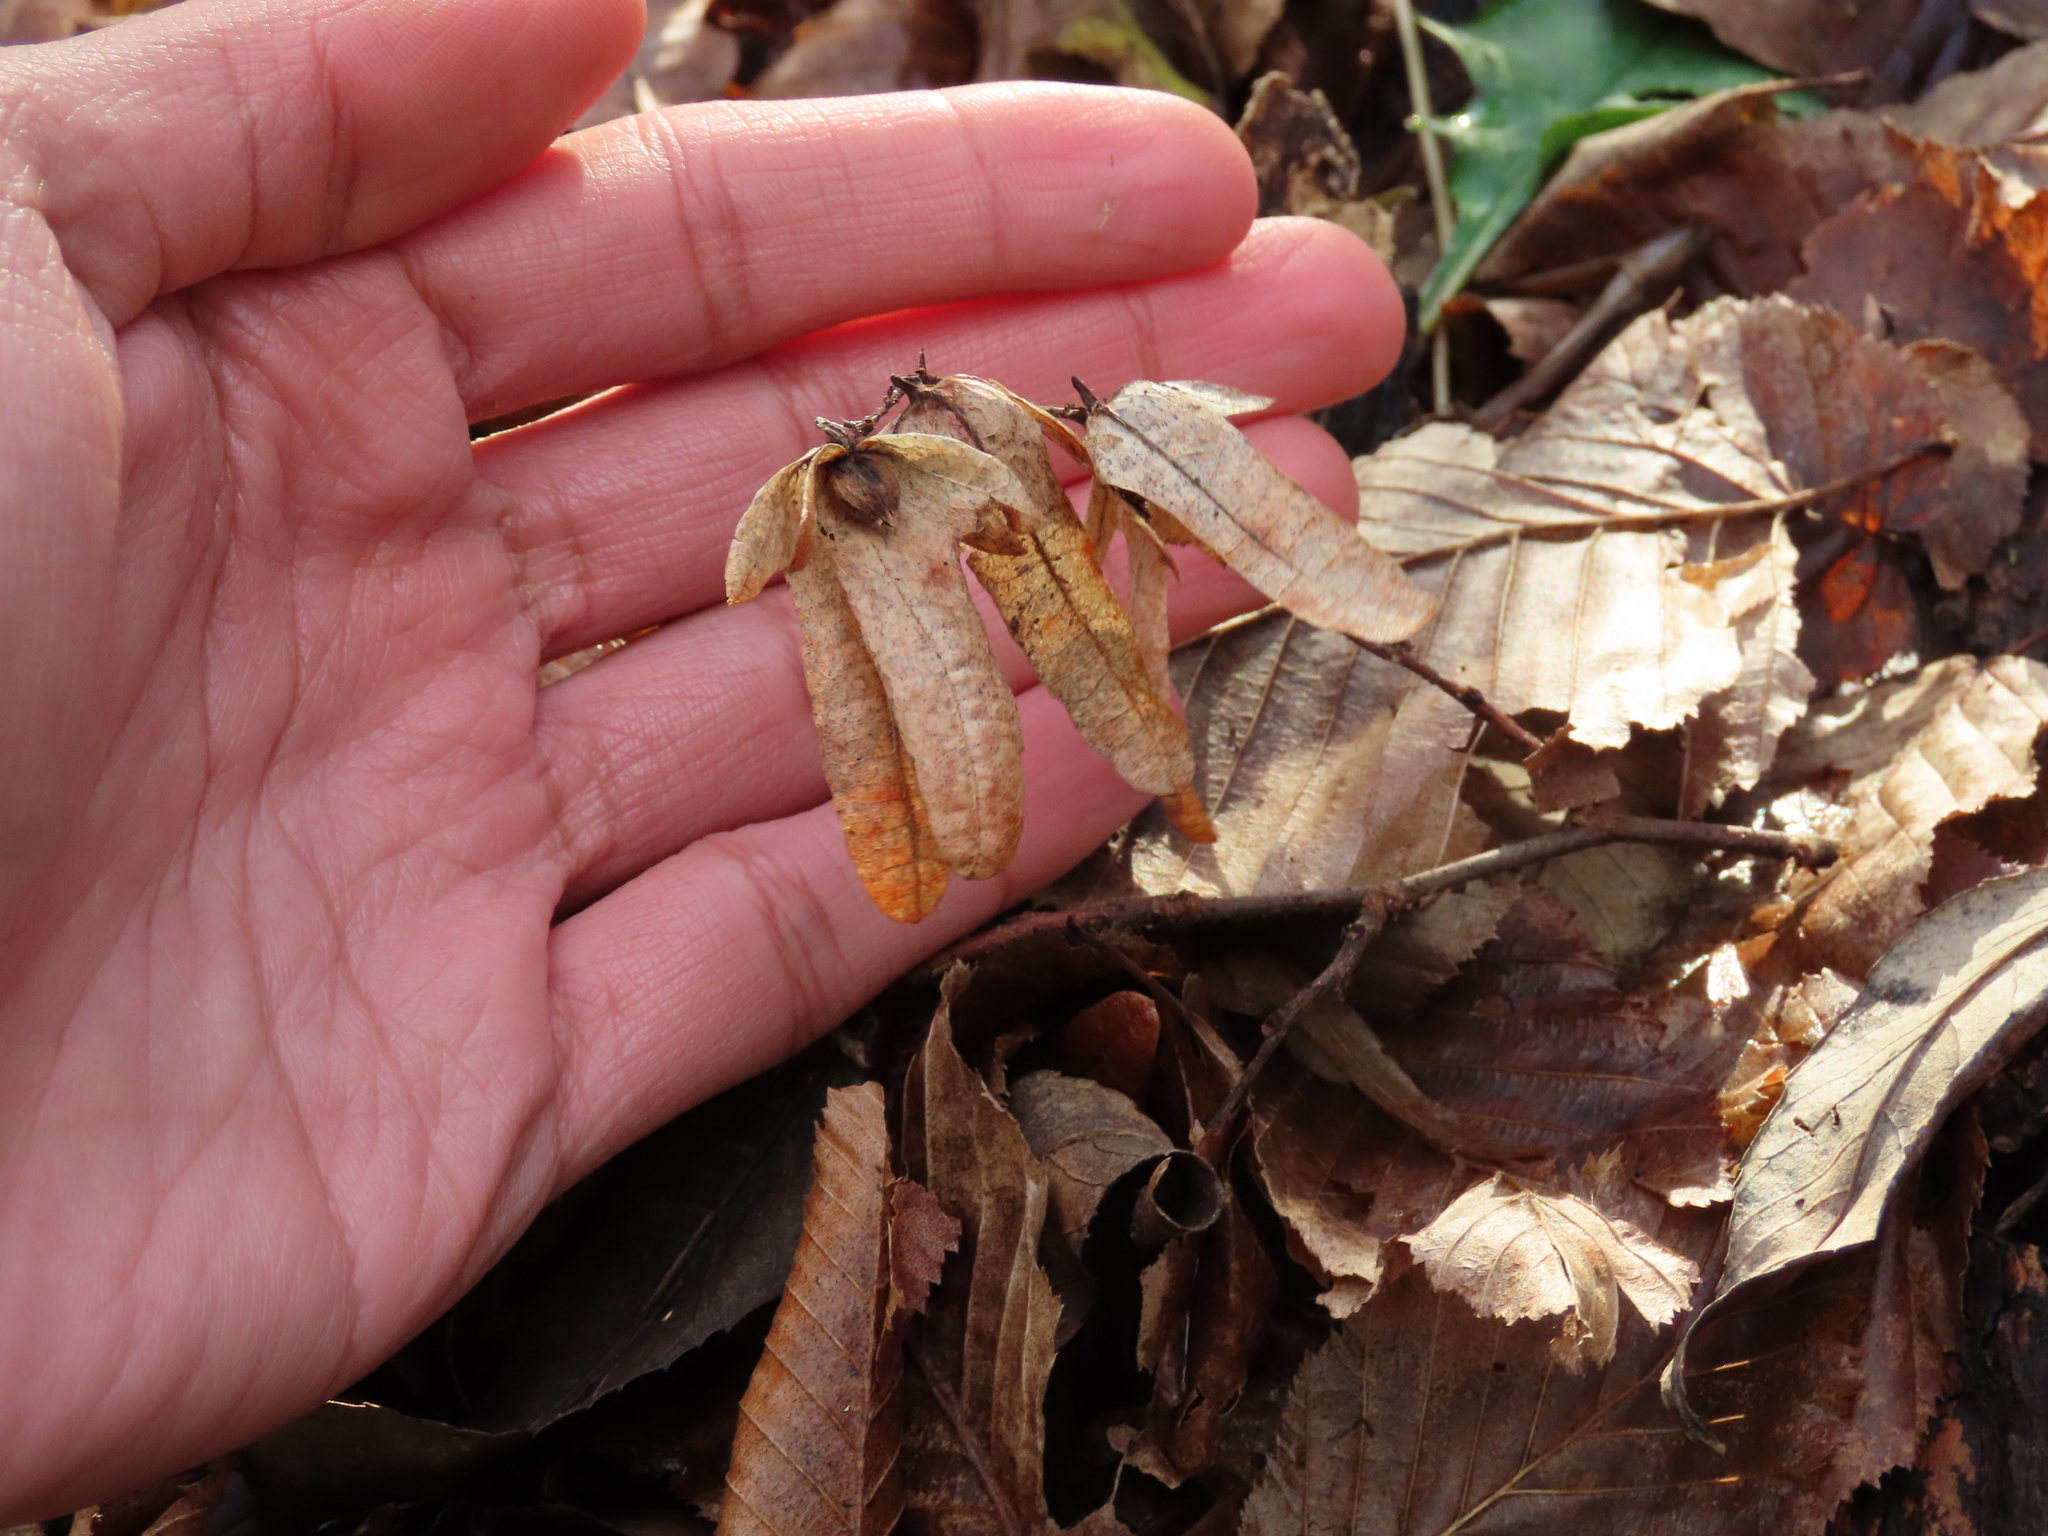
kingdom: Plantae
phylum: Tracheophyta
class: Magnoliopsida
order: Fagales
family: Betulaceae
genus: Carpinus
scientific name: Carpinus betulus
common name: Hornbeam
